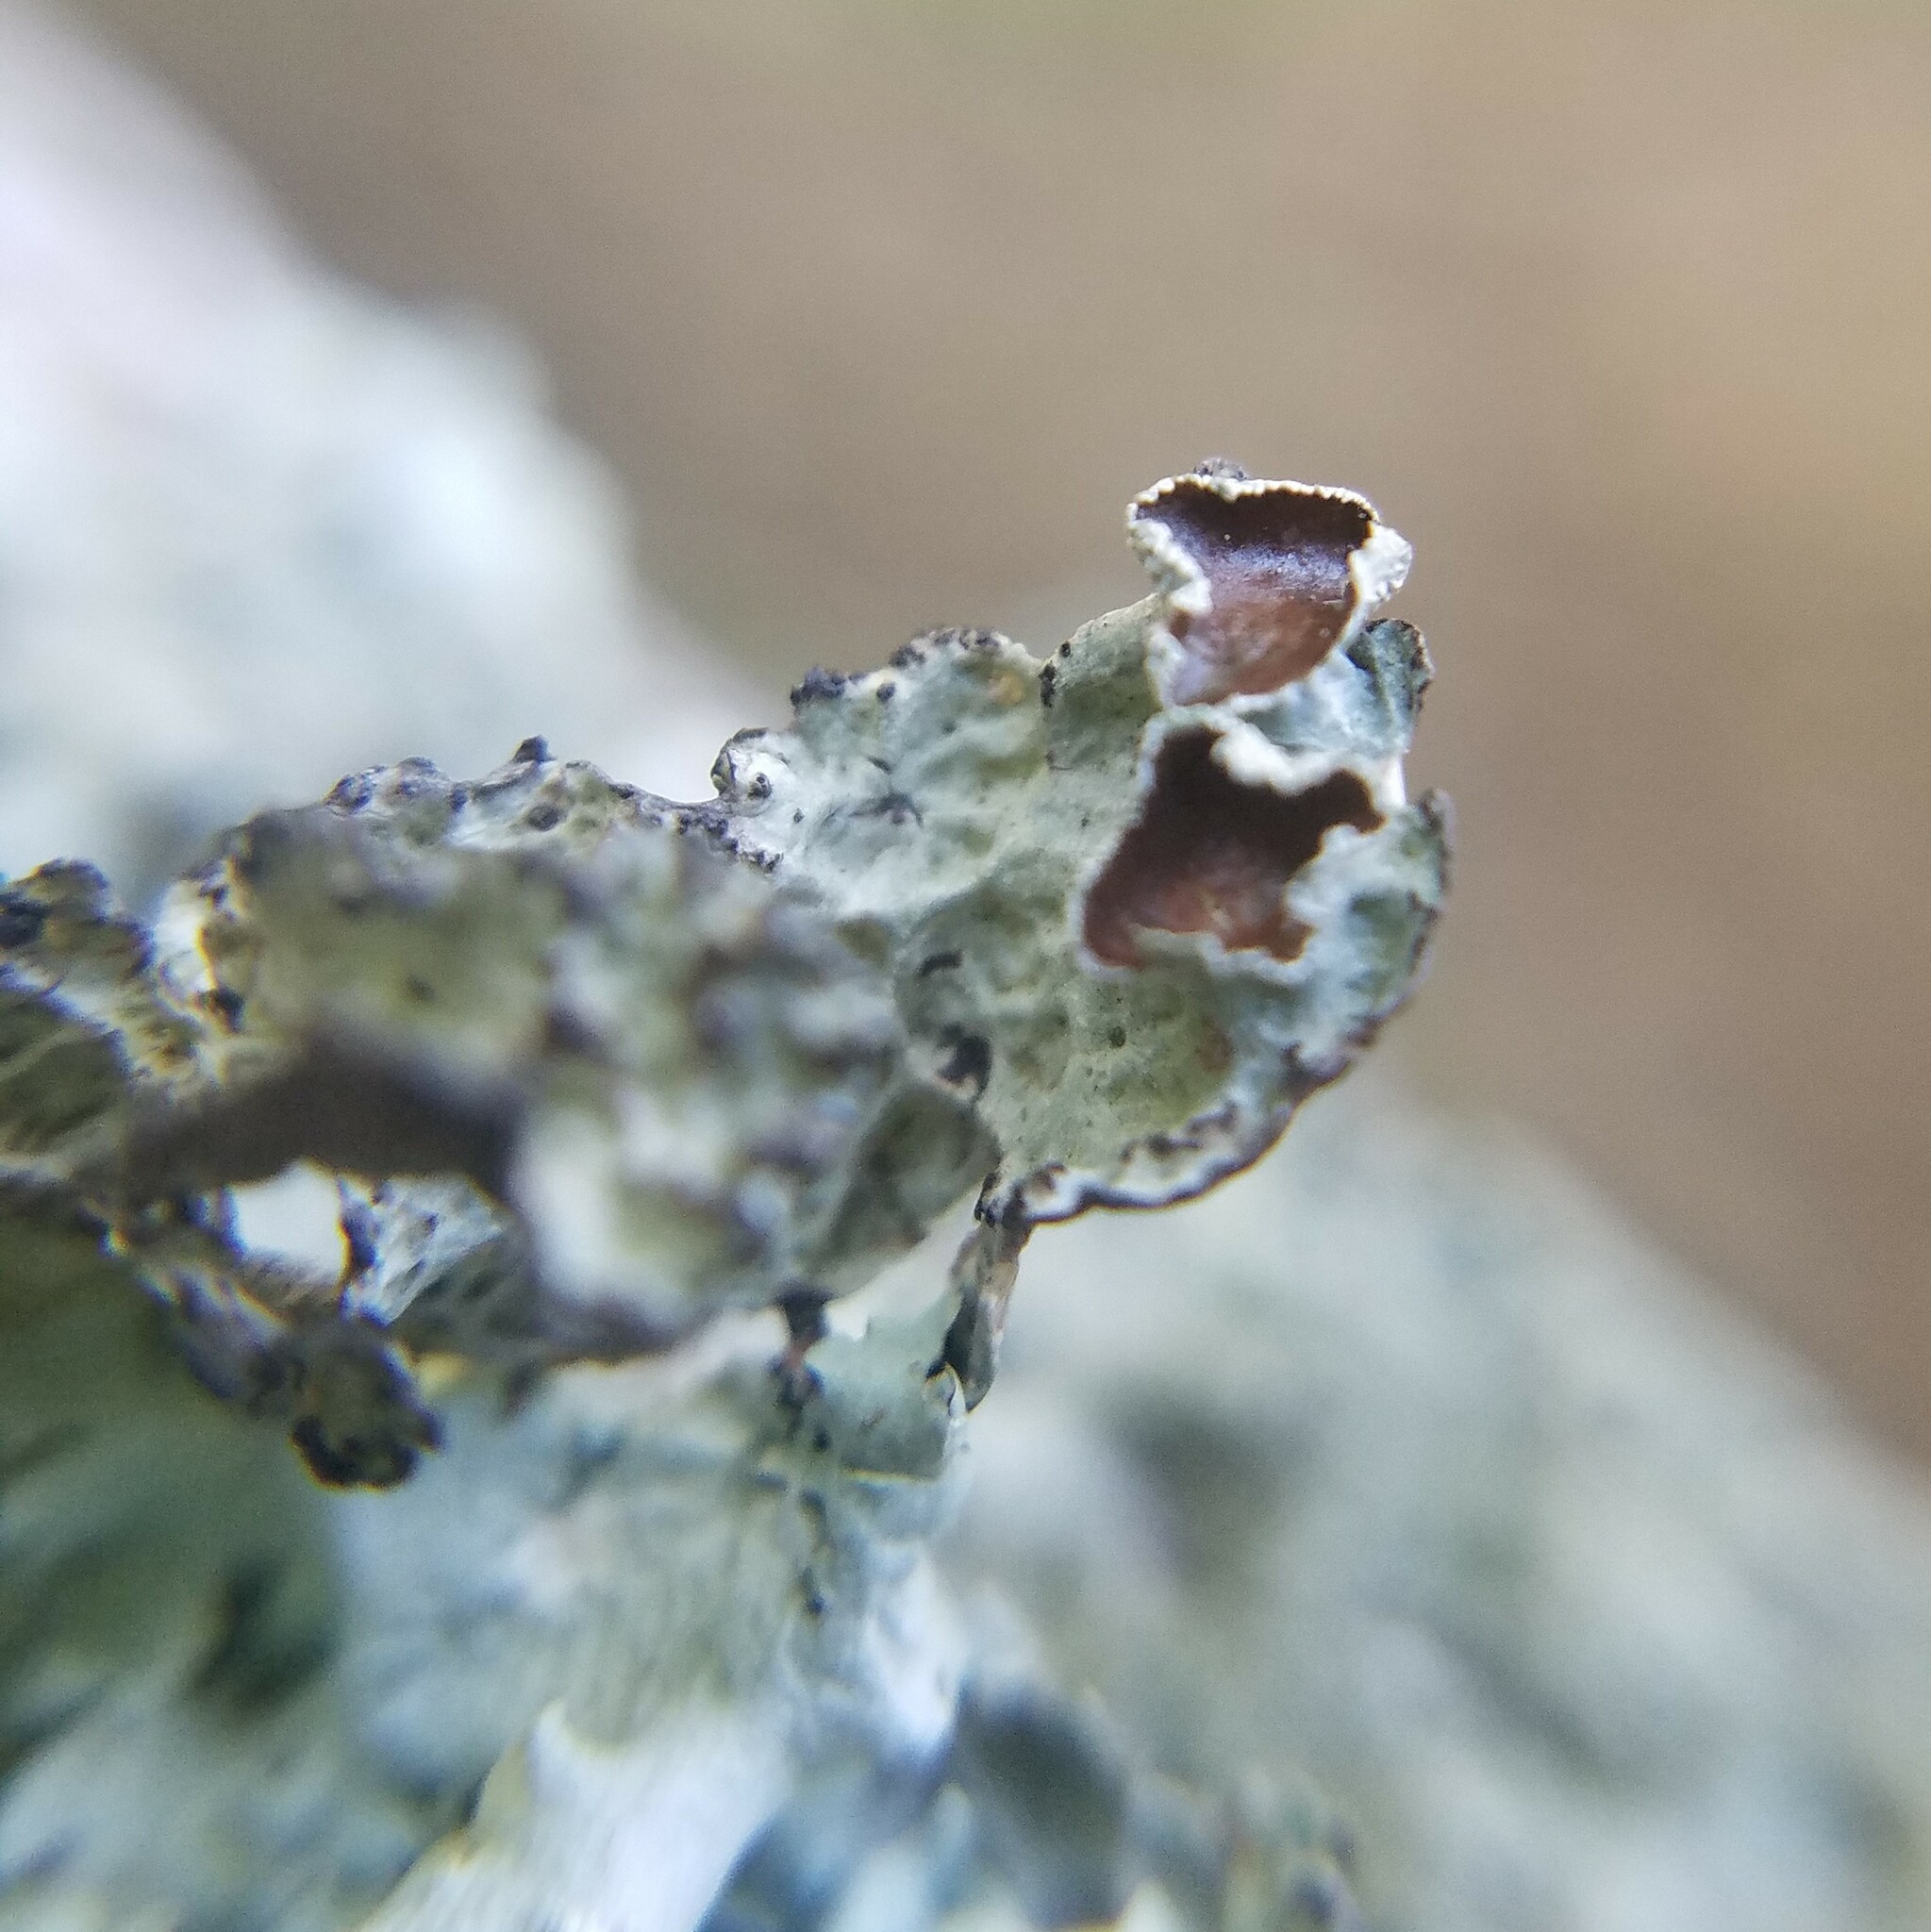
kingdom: Fungi
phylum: Ascomycota
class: Lecanoromycetes
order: Lecanorales
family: Parmeliaceae
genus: Platismatia
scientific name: Platismatia tuckermanii
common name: Crumpled rag lichen
